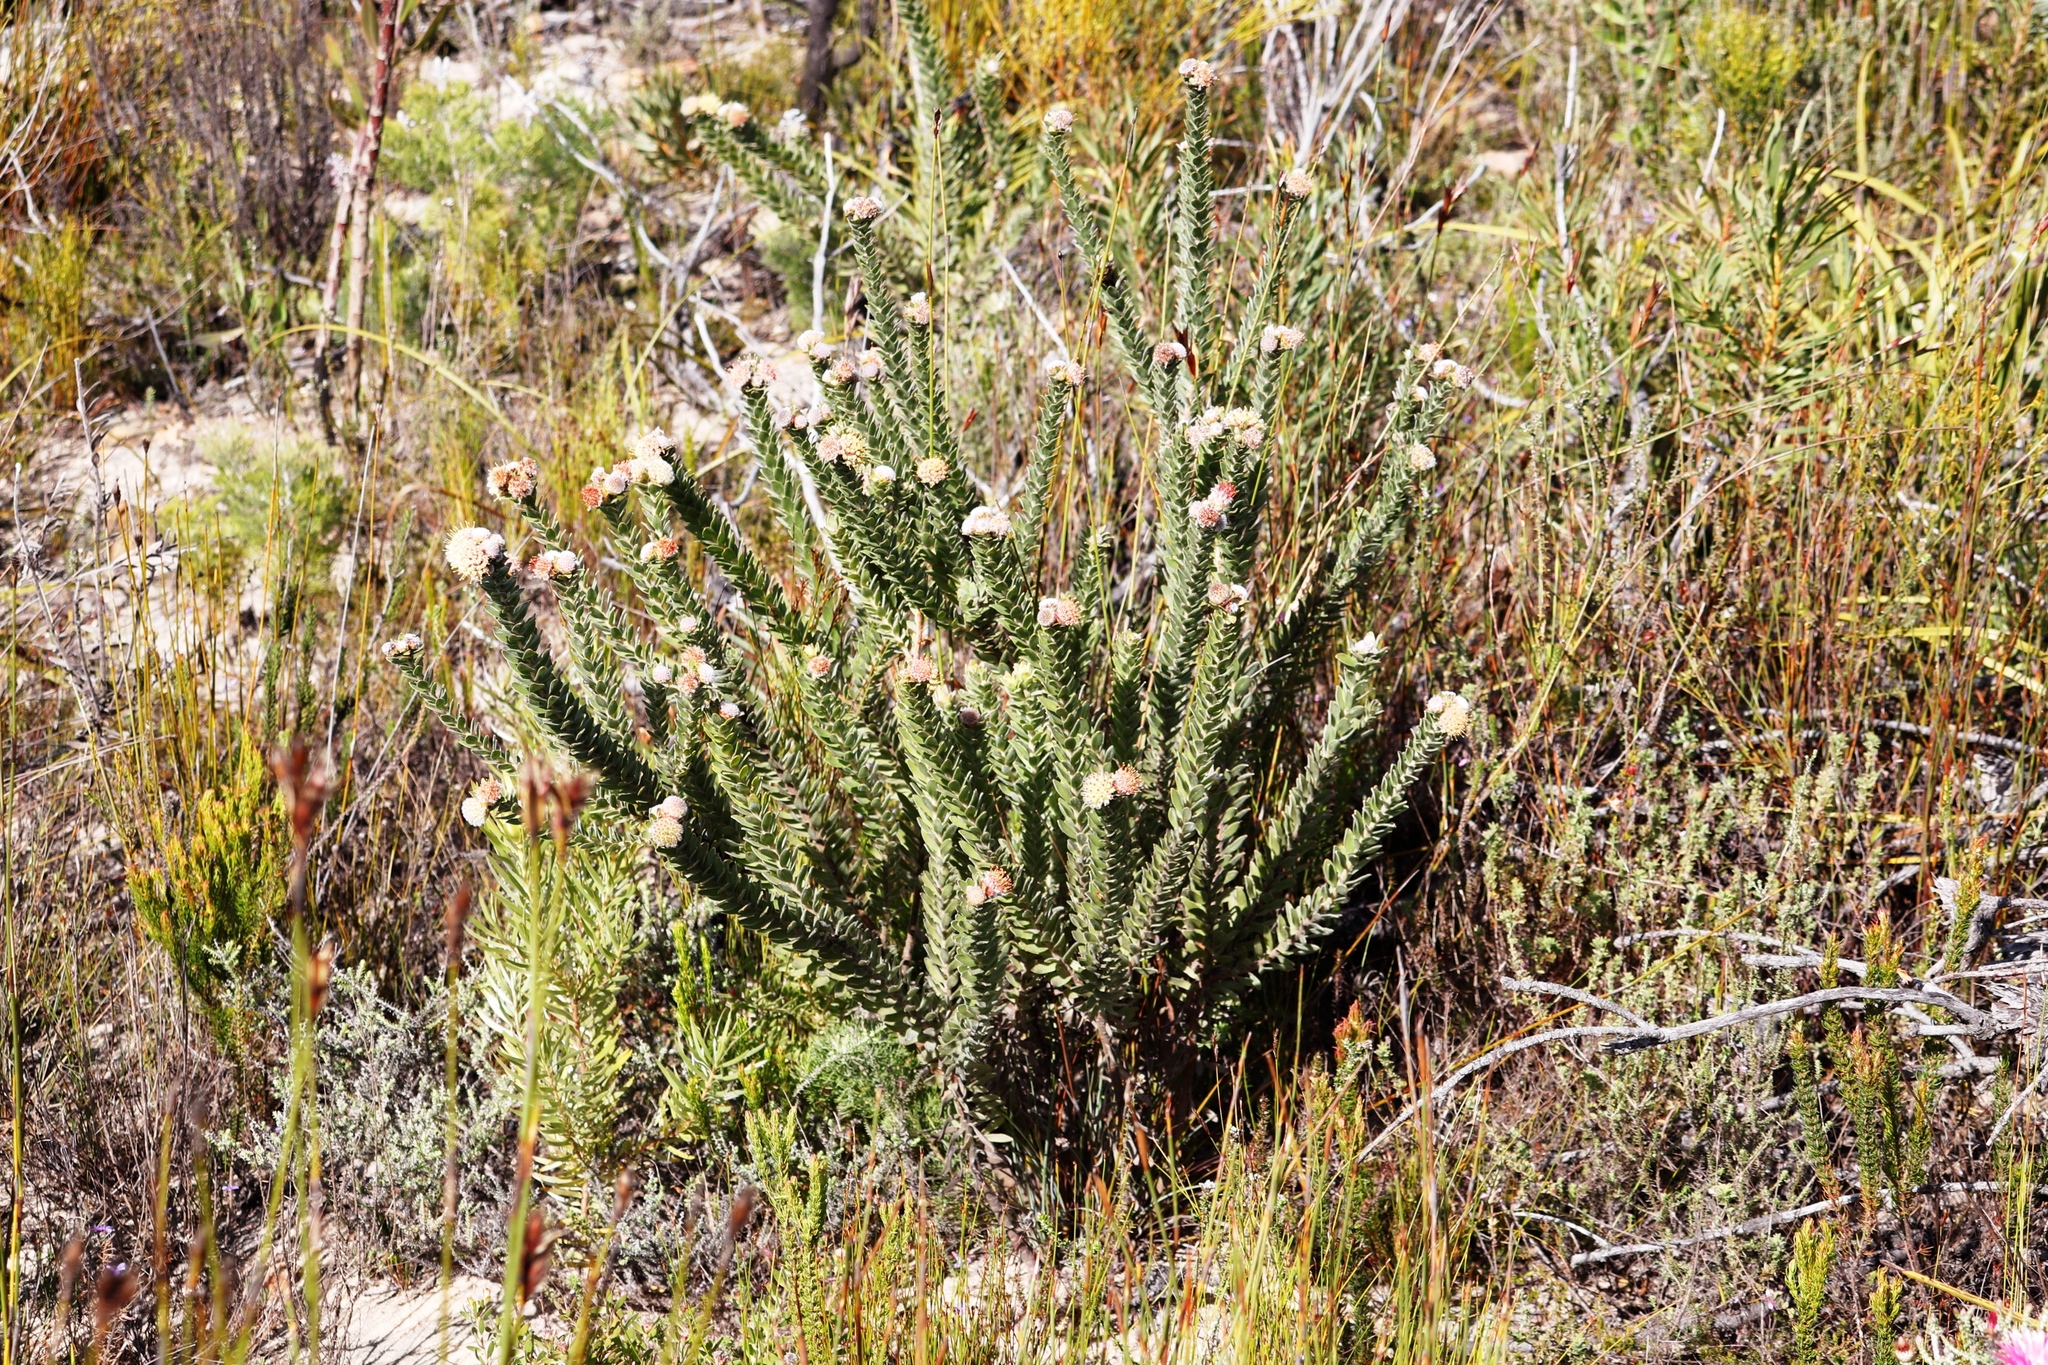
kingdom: Plantae
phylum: Tracheophyta
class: Magnoliopsida
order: Proteales
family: Proteaceae
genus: Leucospermum
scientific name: Leucospermum truncatulum
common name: Oval-leaf pincushion
